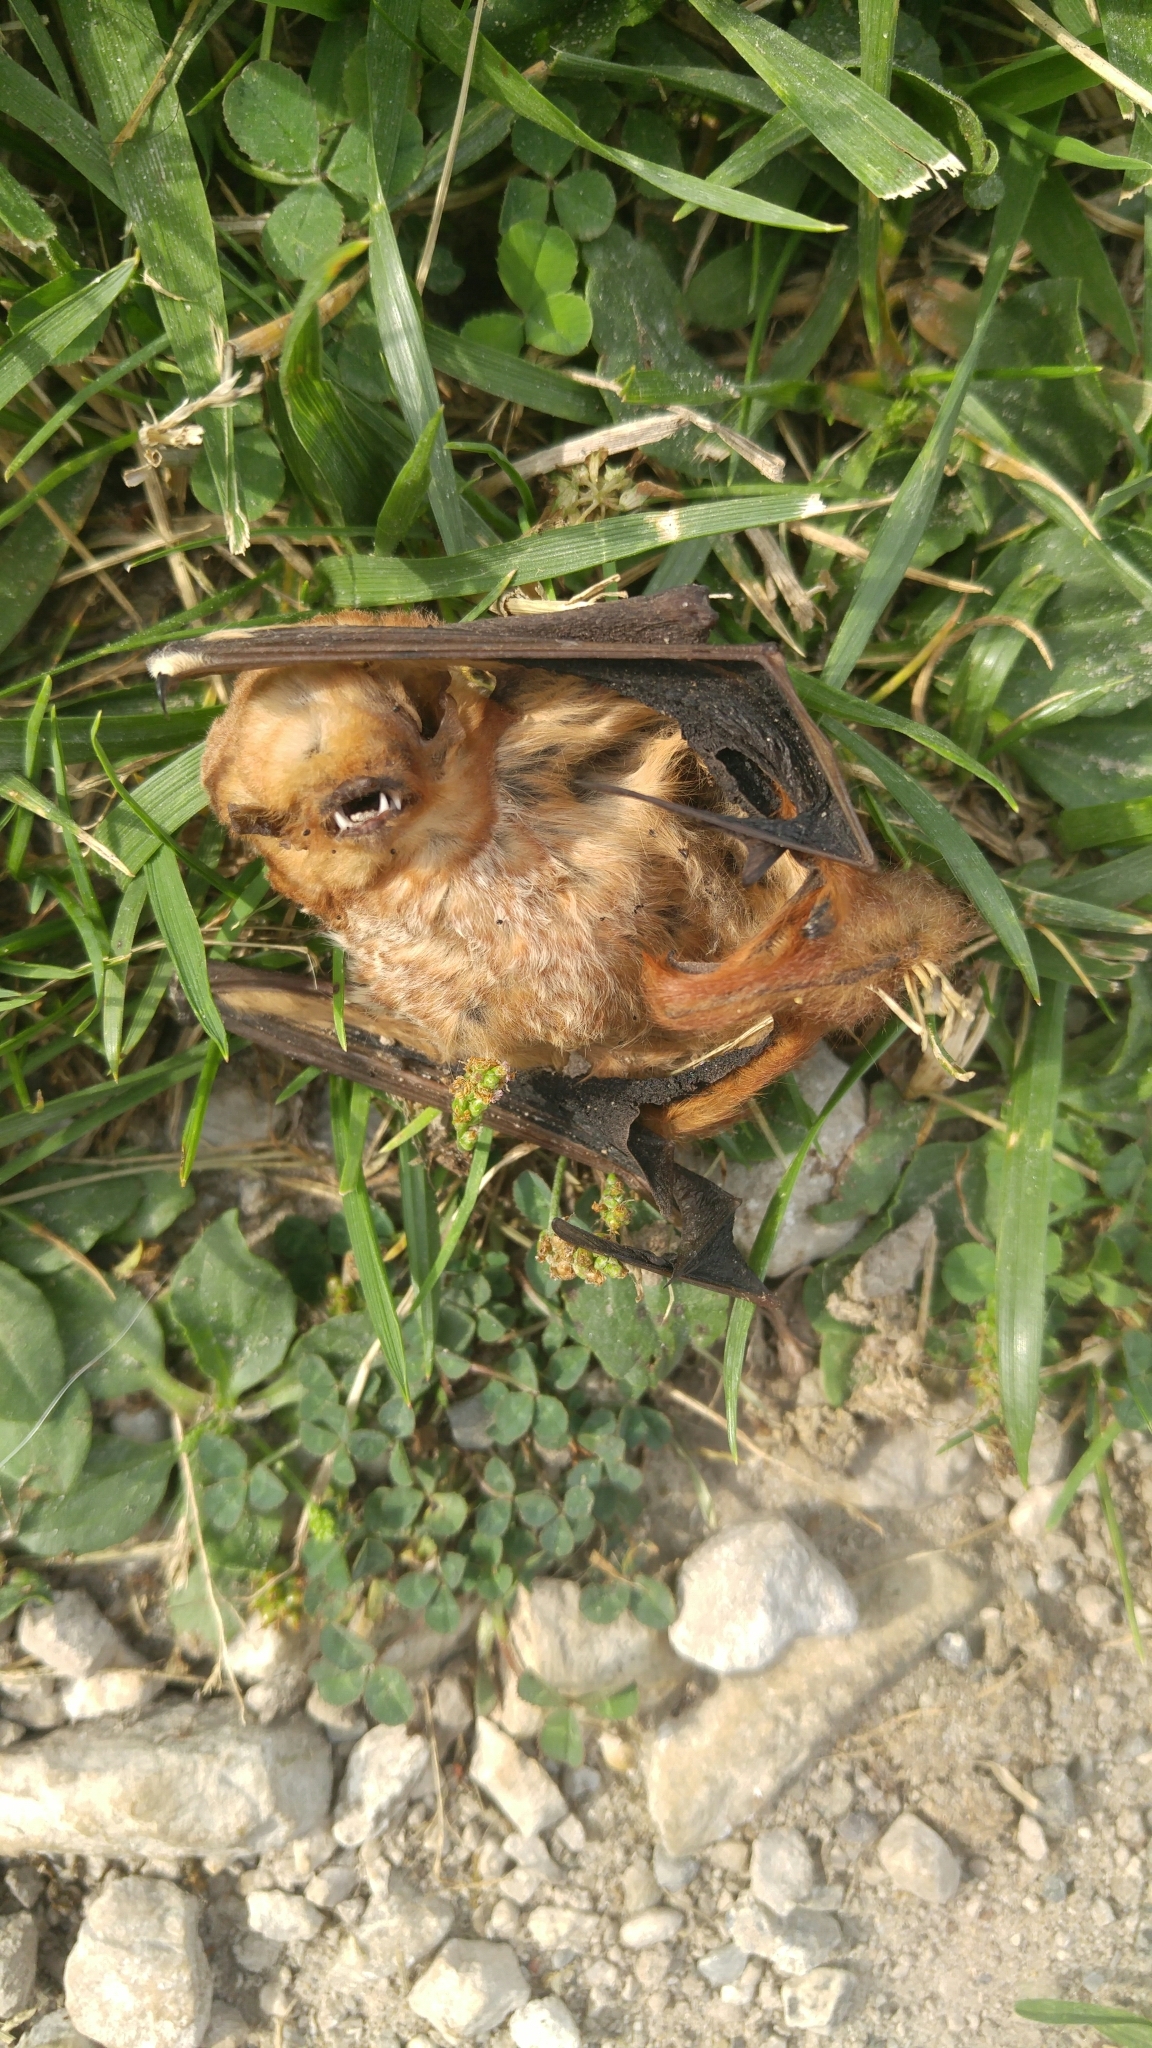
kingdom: Animalia
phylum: Chordata
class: Mammalia
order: Chiroptera
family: Vespertilionidae
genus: Lasiurus
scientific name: Lasiurus borealis
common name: Eastern red bat
